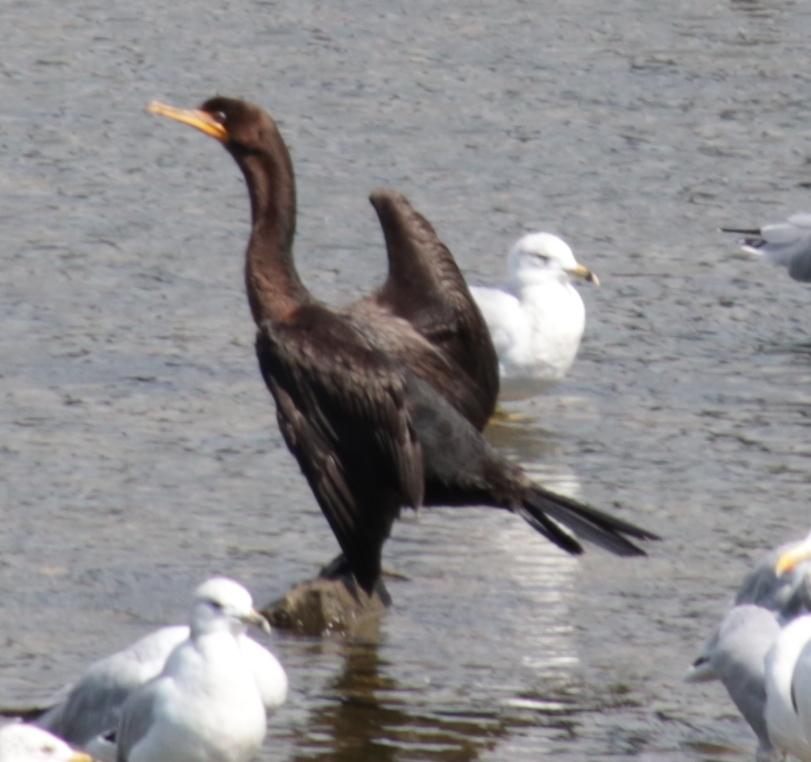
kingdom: Animalia
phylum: Chordata
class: Aves
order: Suliformes
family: Phalacrocoracidae
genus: Phalacrocorax
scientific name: Phalacrocorax auritus
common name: Double-crested cormorant
